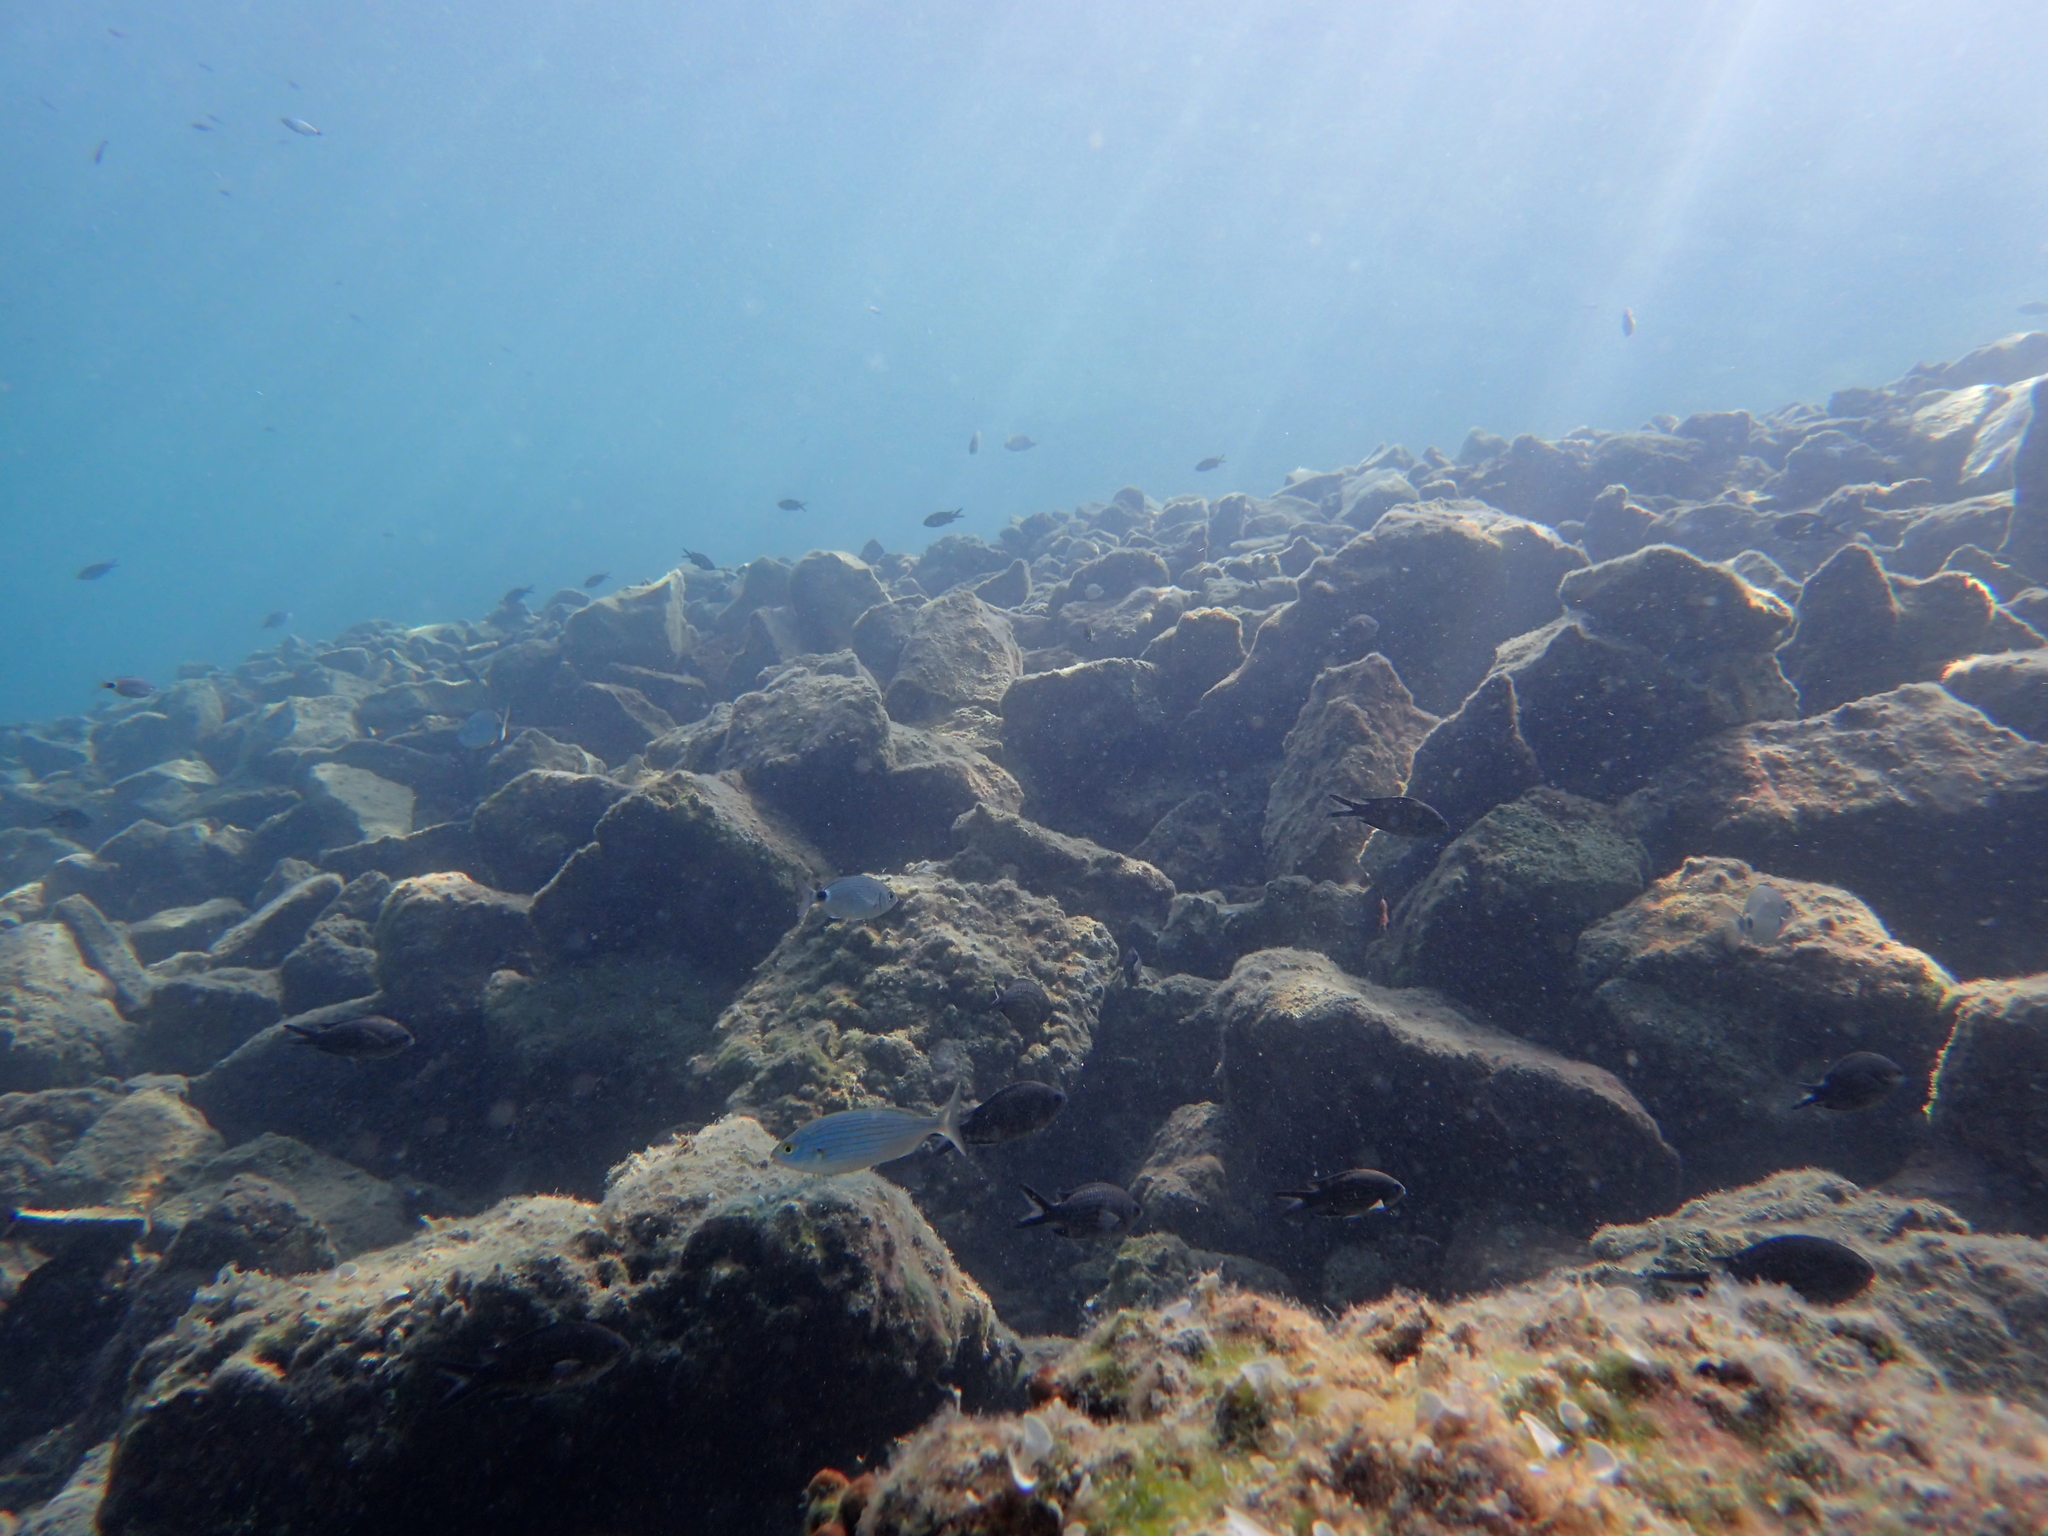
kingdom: Animalia
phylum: Chordata
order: Perciformes
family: Sparidae
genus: Sarpa
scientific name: Sarpa salpa
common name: Salema
